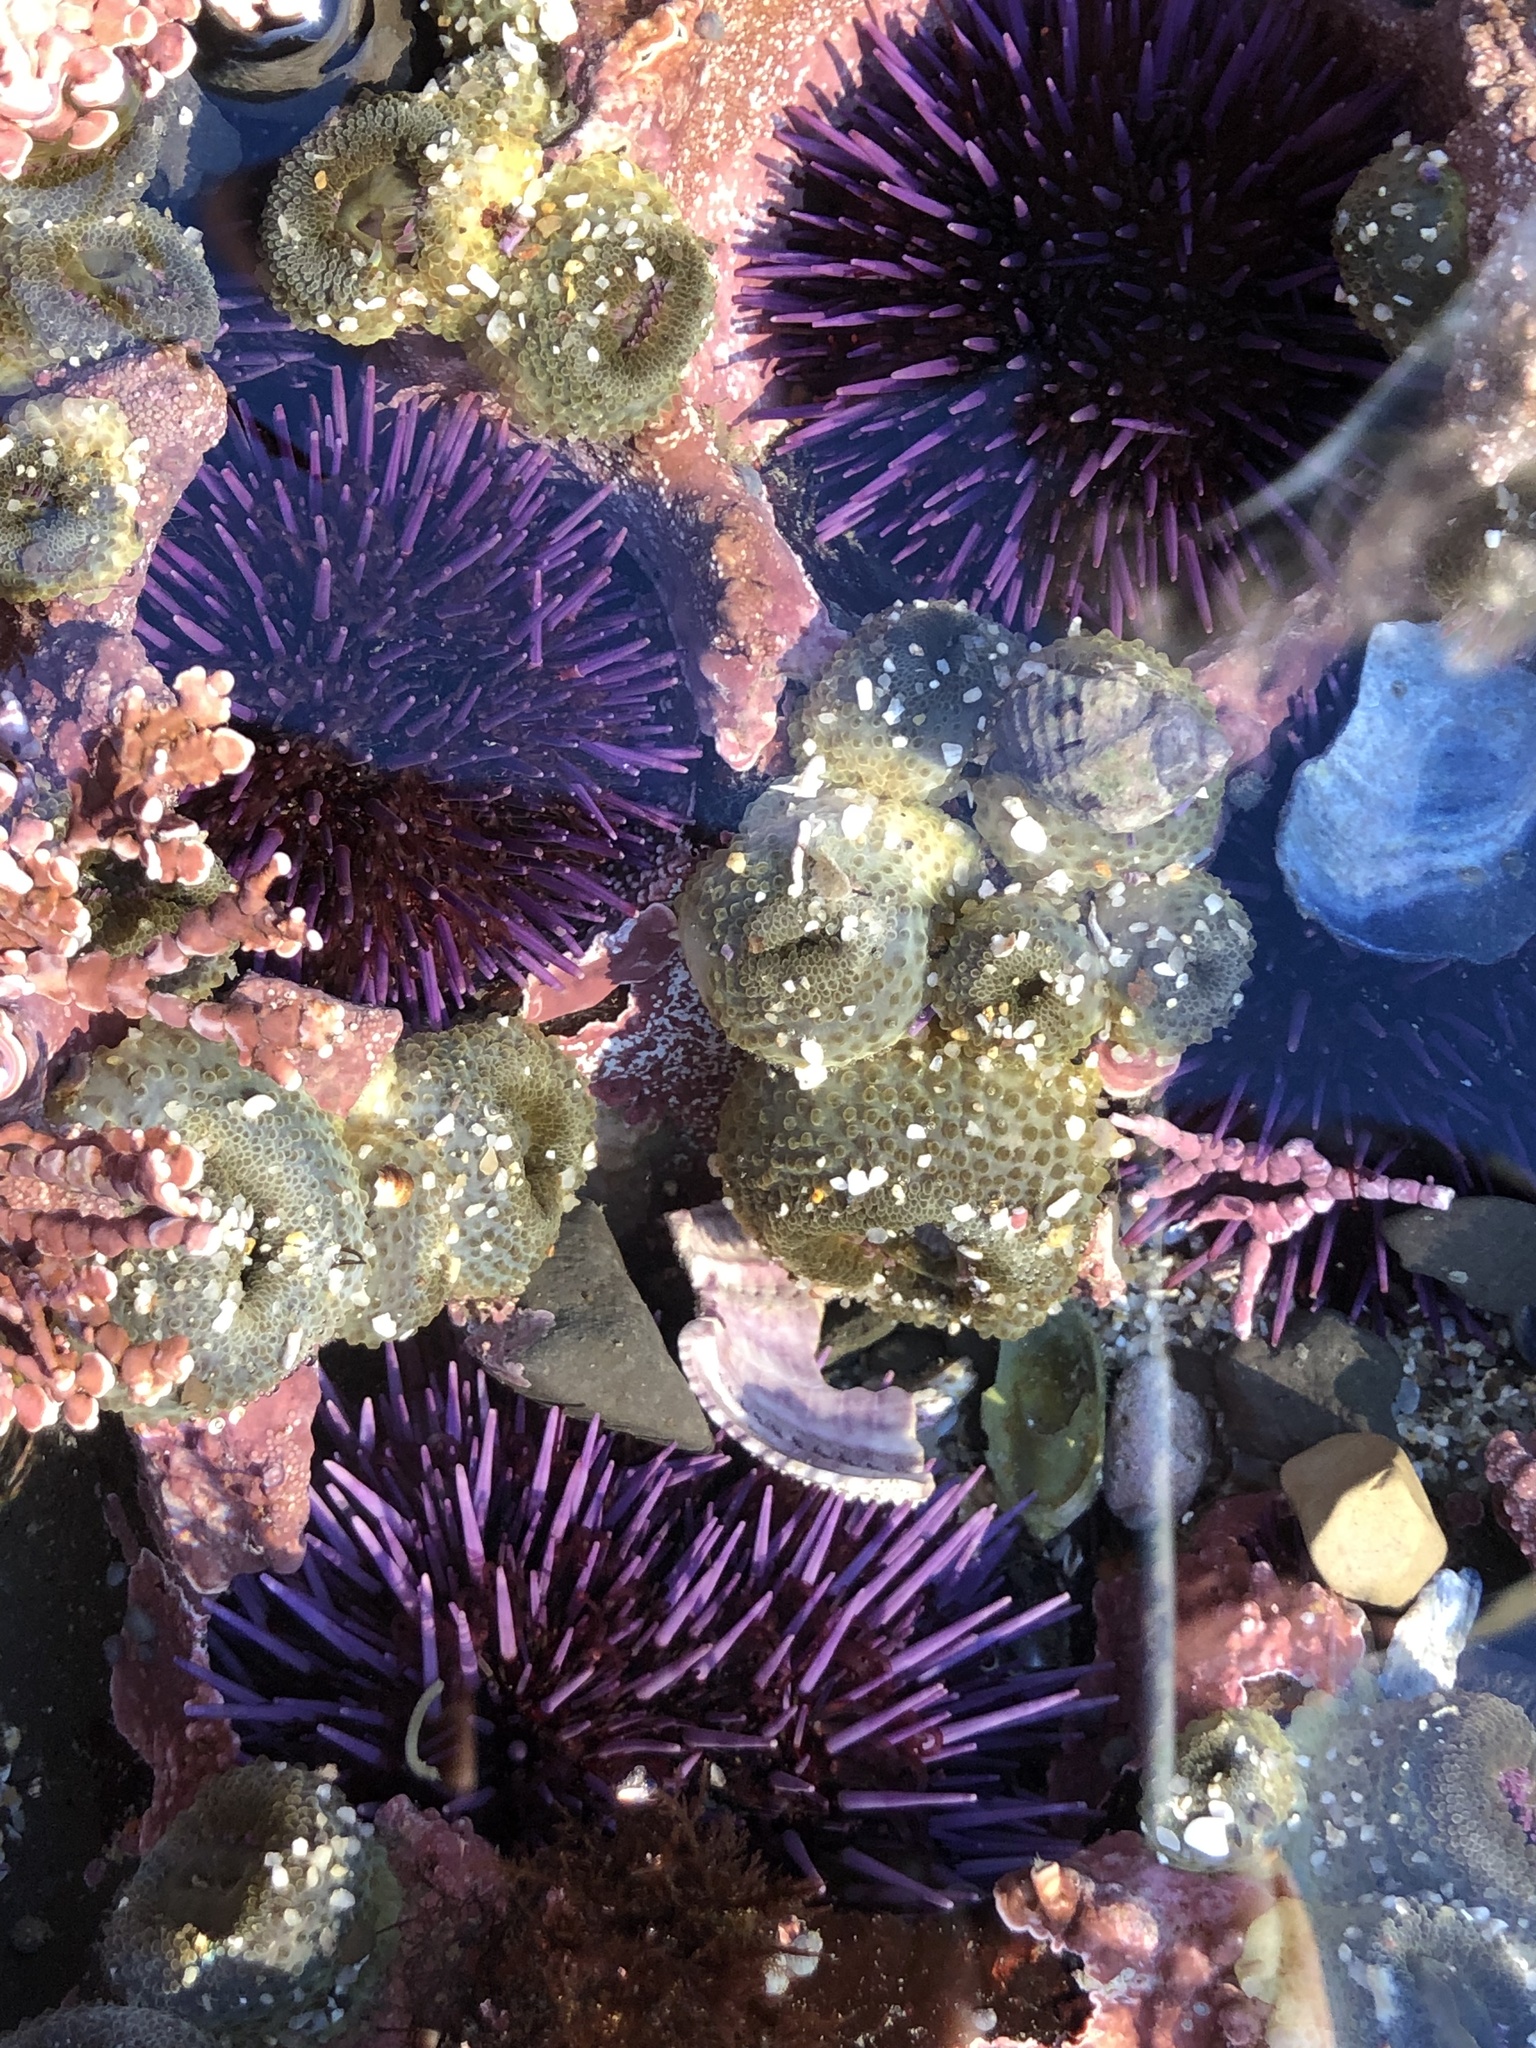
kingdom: Animalia
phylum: Echinodermata
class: Echinoidea
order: Camarodonta
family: Strongylocentrotidae
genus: Strongylocentrotus
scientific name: Strongylocentrotus purpuratus
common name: Purple sea urchin
